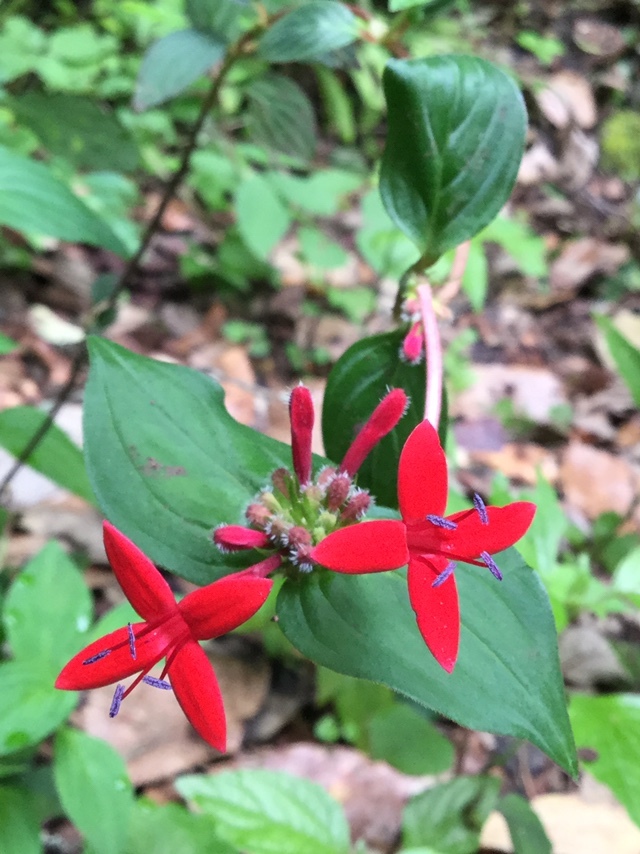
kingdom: Plantae
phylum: Tracheophyta
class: Magnoliopsida
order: Gentianales
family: Rubiaceae
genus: Crusea
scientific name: Crusea coccinea
